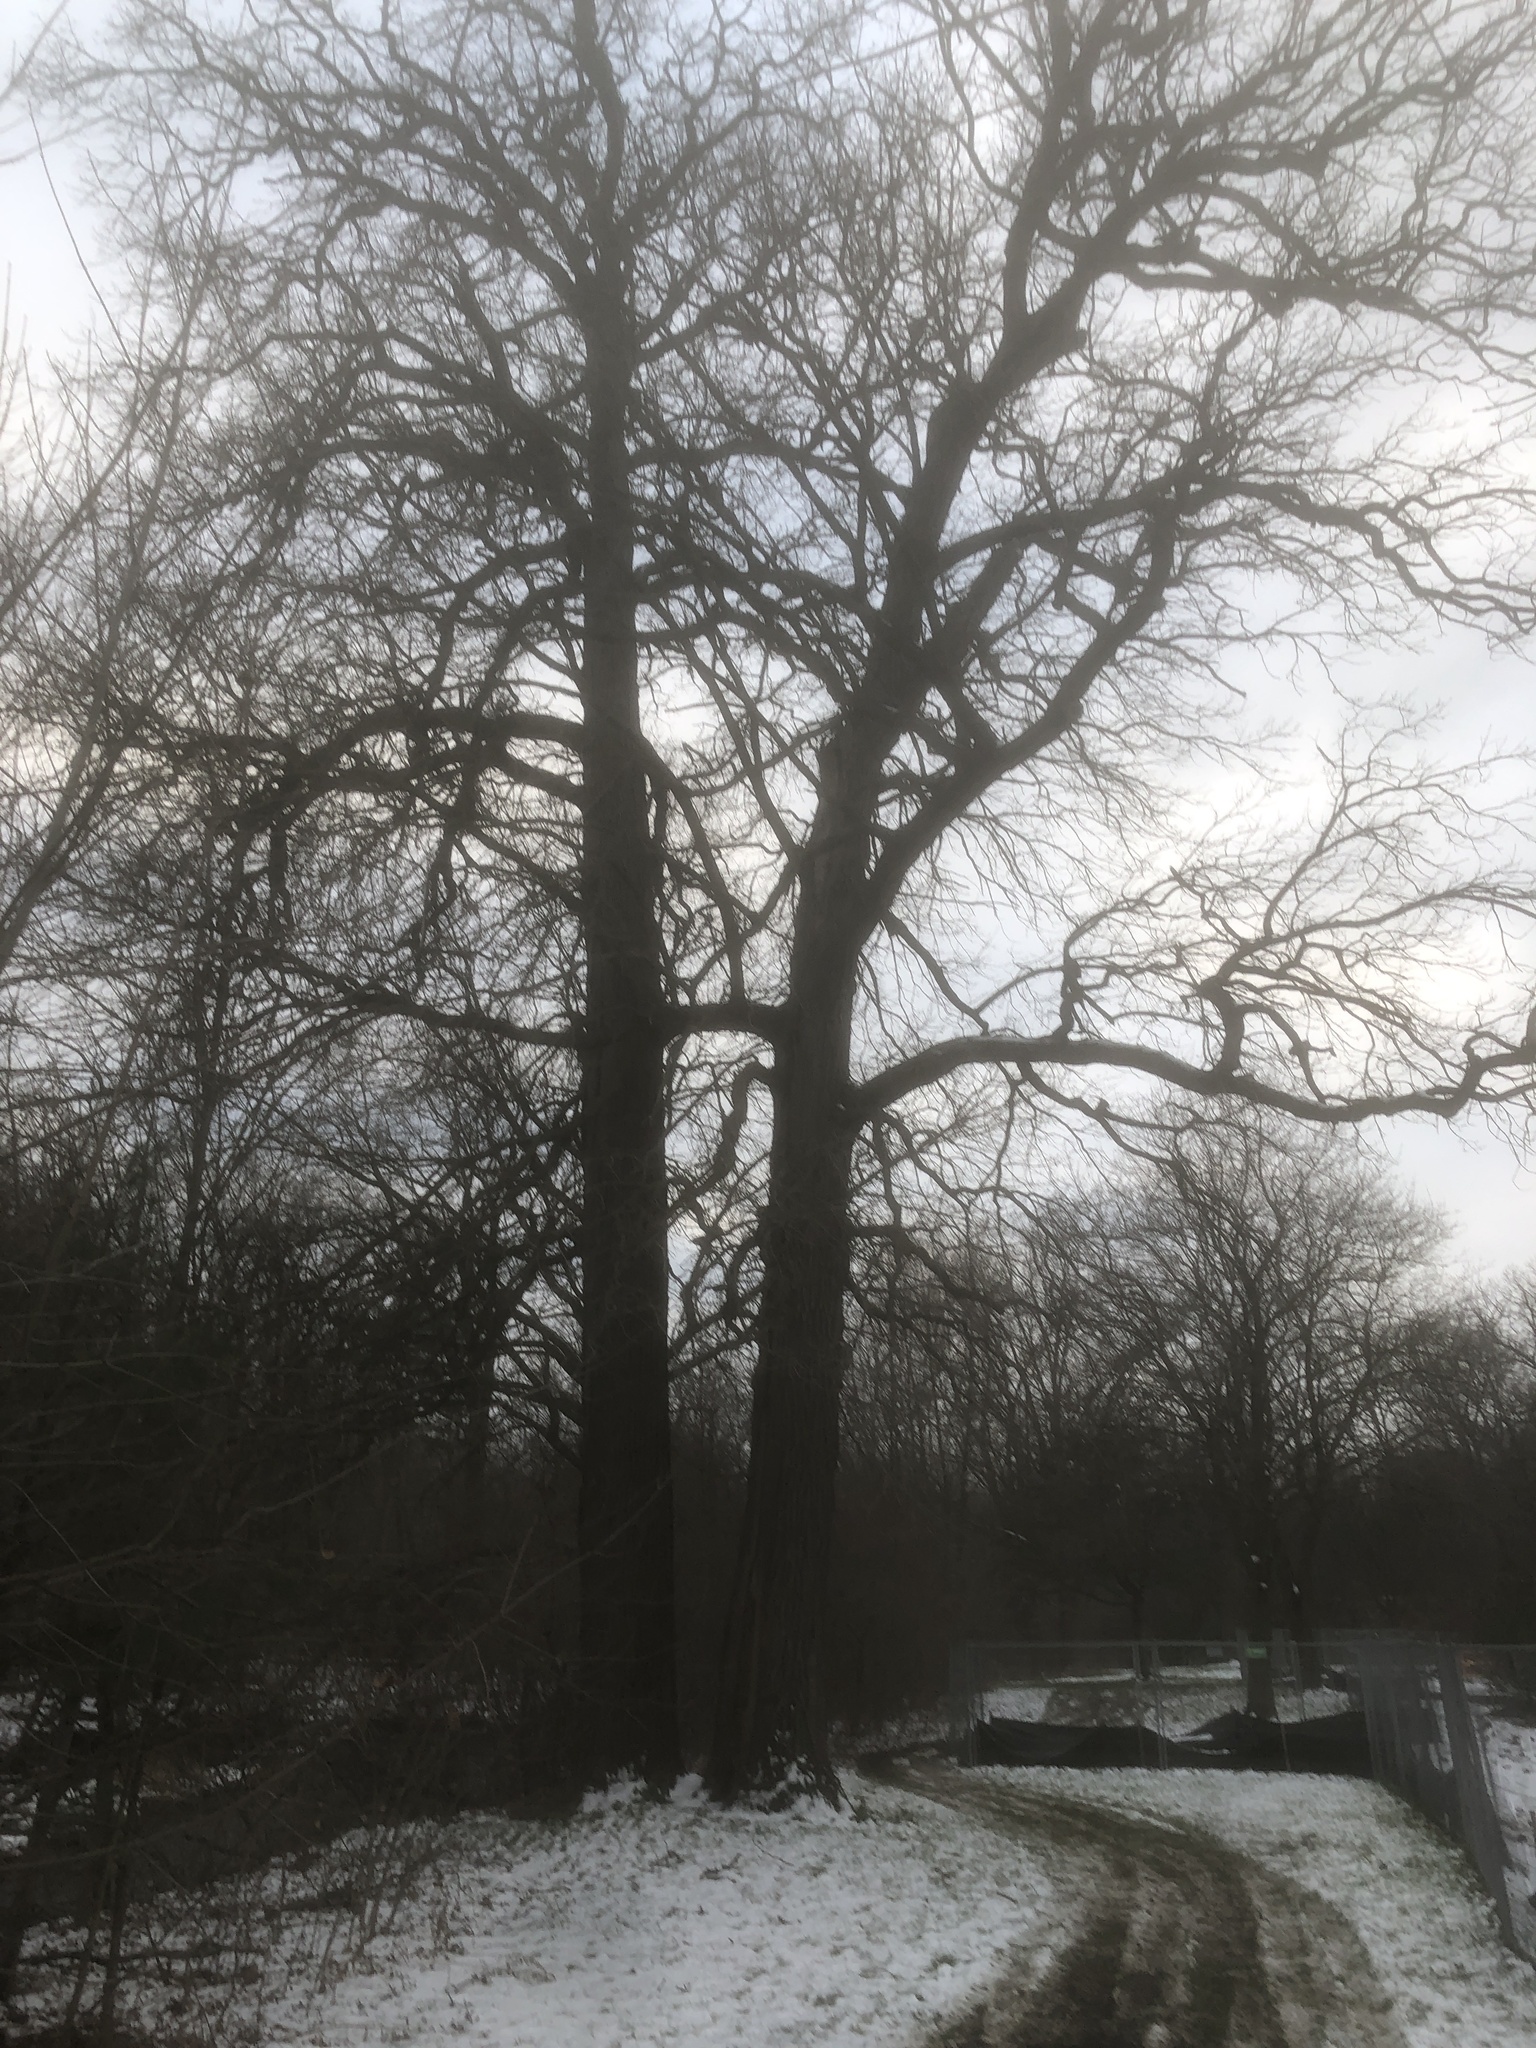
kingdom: Plantae
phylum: Tracheophyta
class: Magnoliopsida
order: Fagales
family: Fagaceae
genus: Quercus
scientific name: Quercus macrocarpa
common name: Bur oak
